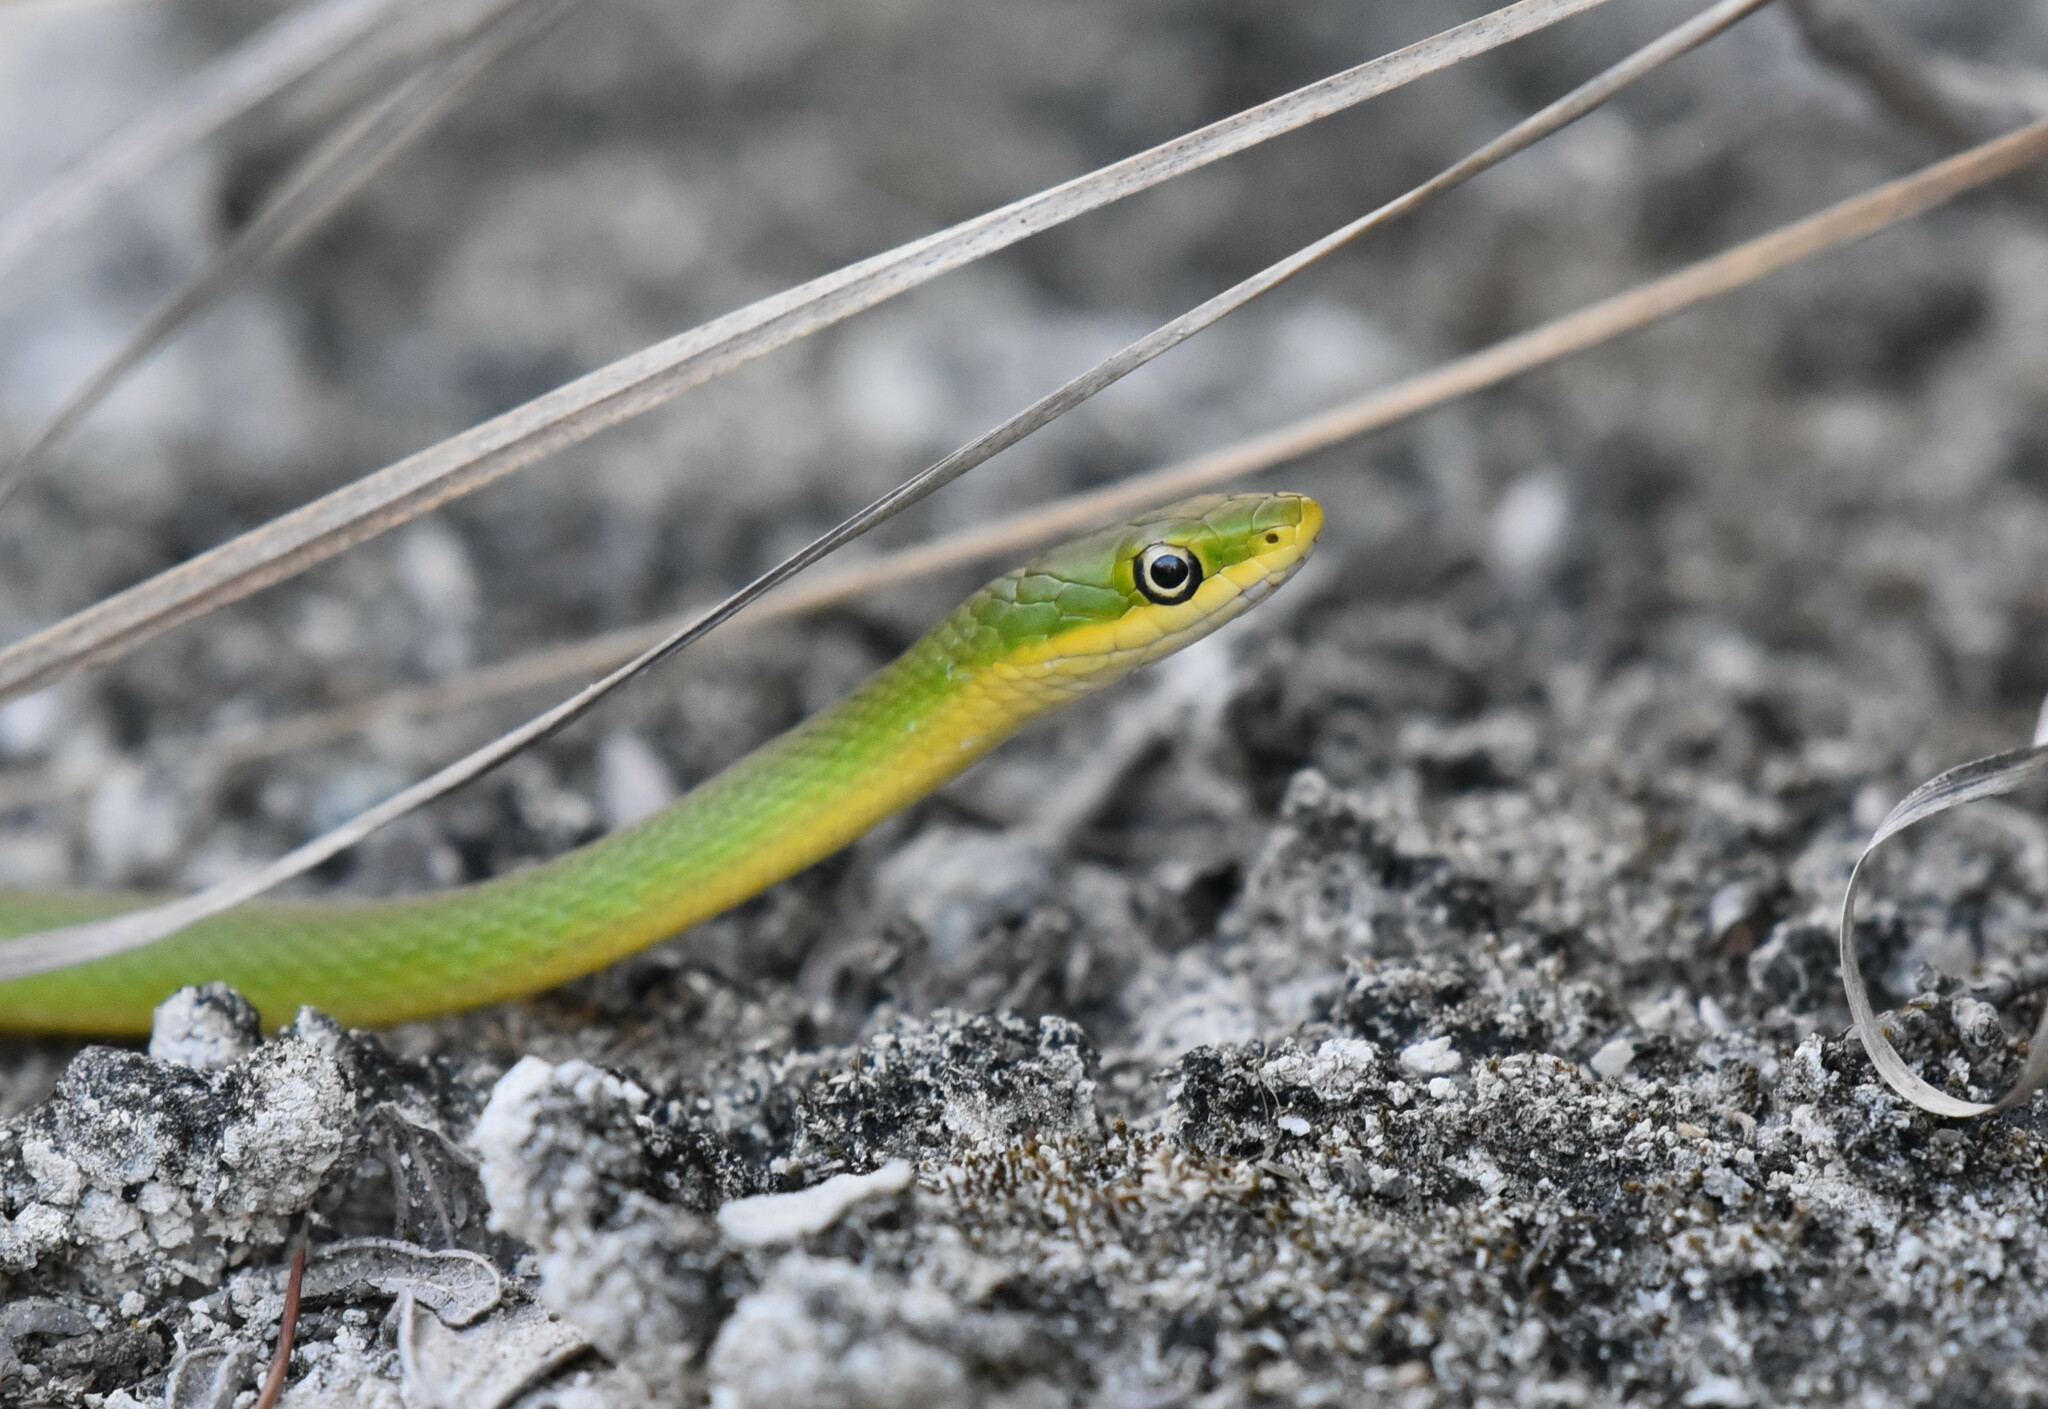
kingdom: Animalia
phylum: Chordata
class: Squamata
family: Colubridae
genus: Opheodrys
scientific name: Opheodrys aestivus
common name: Rough greensnake
